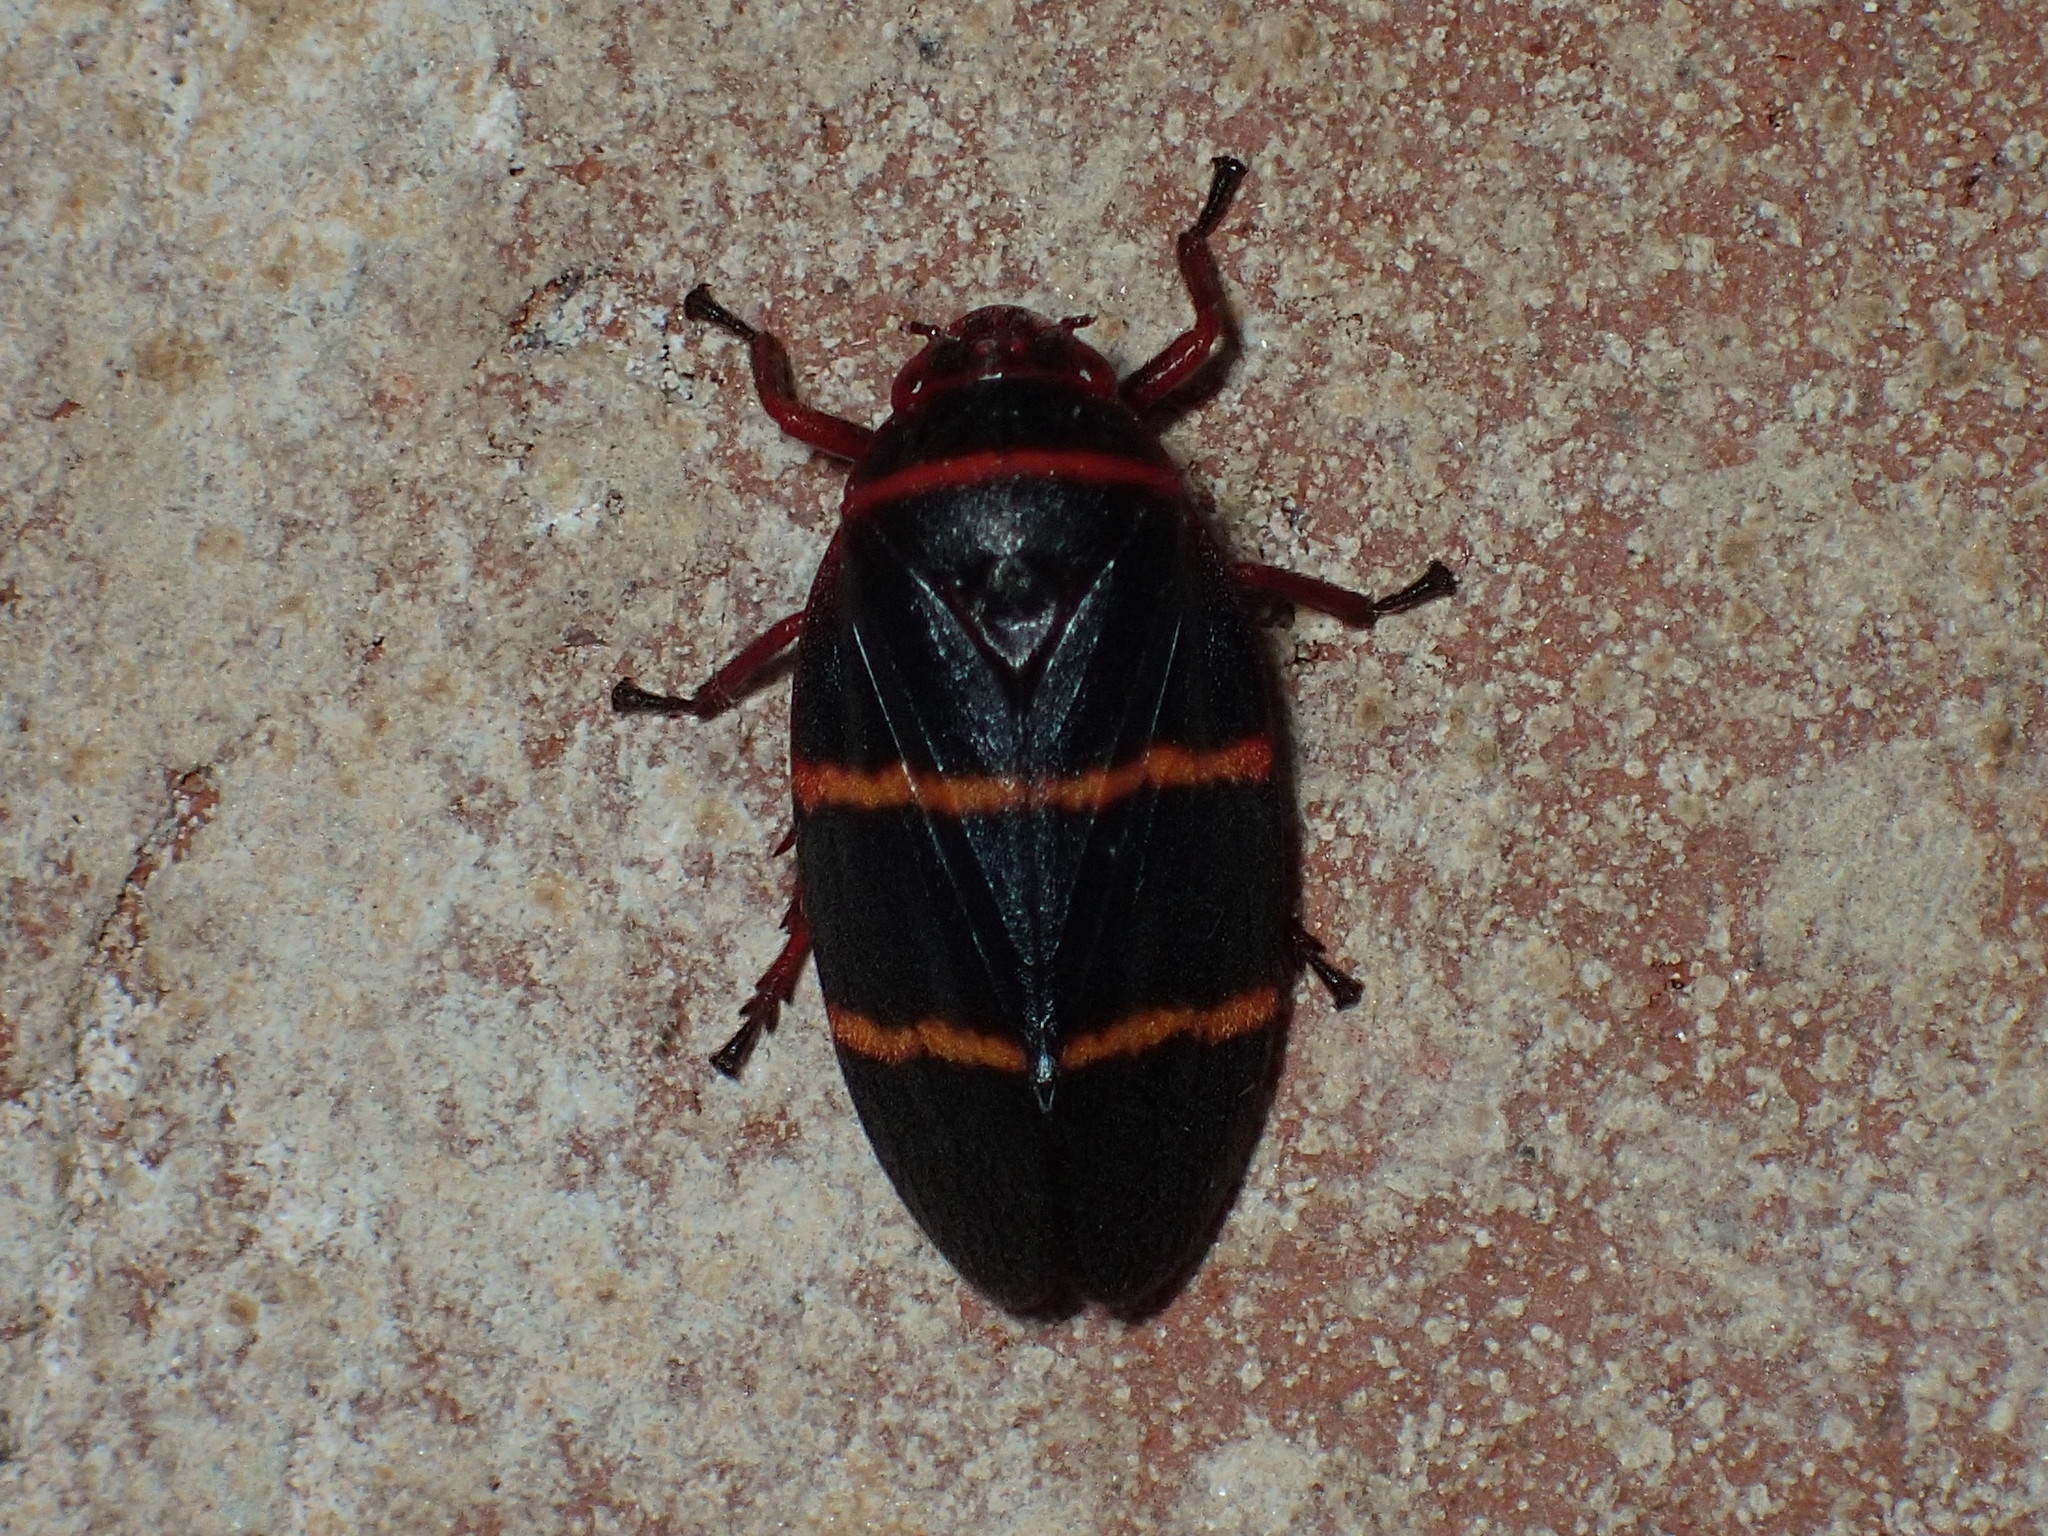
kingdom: Animalia
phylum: Arthropoda
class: Insecta
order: Hemiptera
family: Cercopidae
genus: Prosapia
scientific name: Prosapia bicincta
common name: Twolined spittlebug
